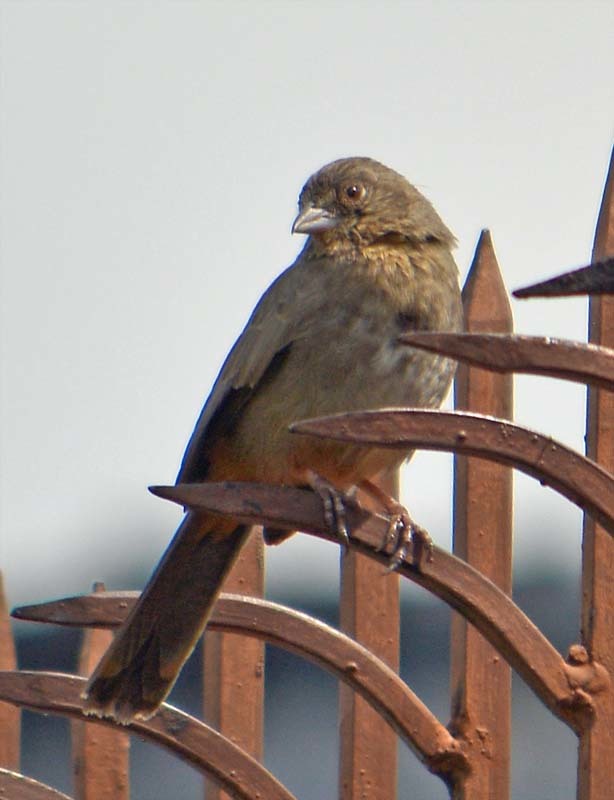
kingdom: Animalia
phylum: Chordata
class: Aves
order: Passeriformes
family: Passerellidae
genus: Melozone
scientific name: Melozone fusca
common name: Canyon towhee
